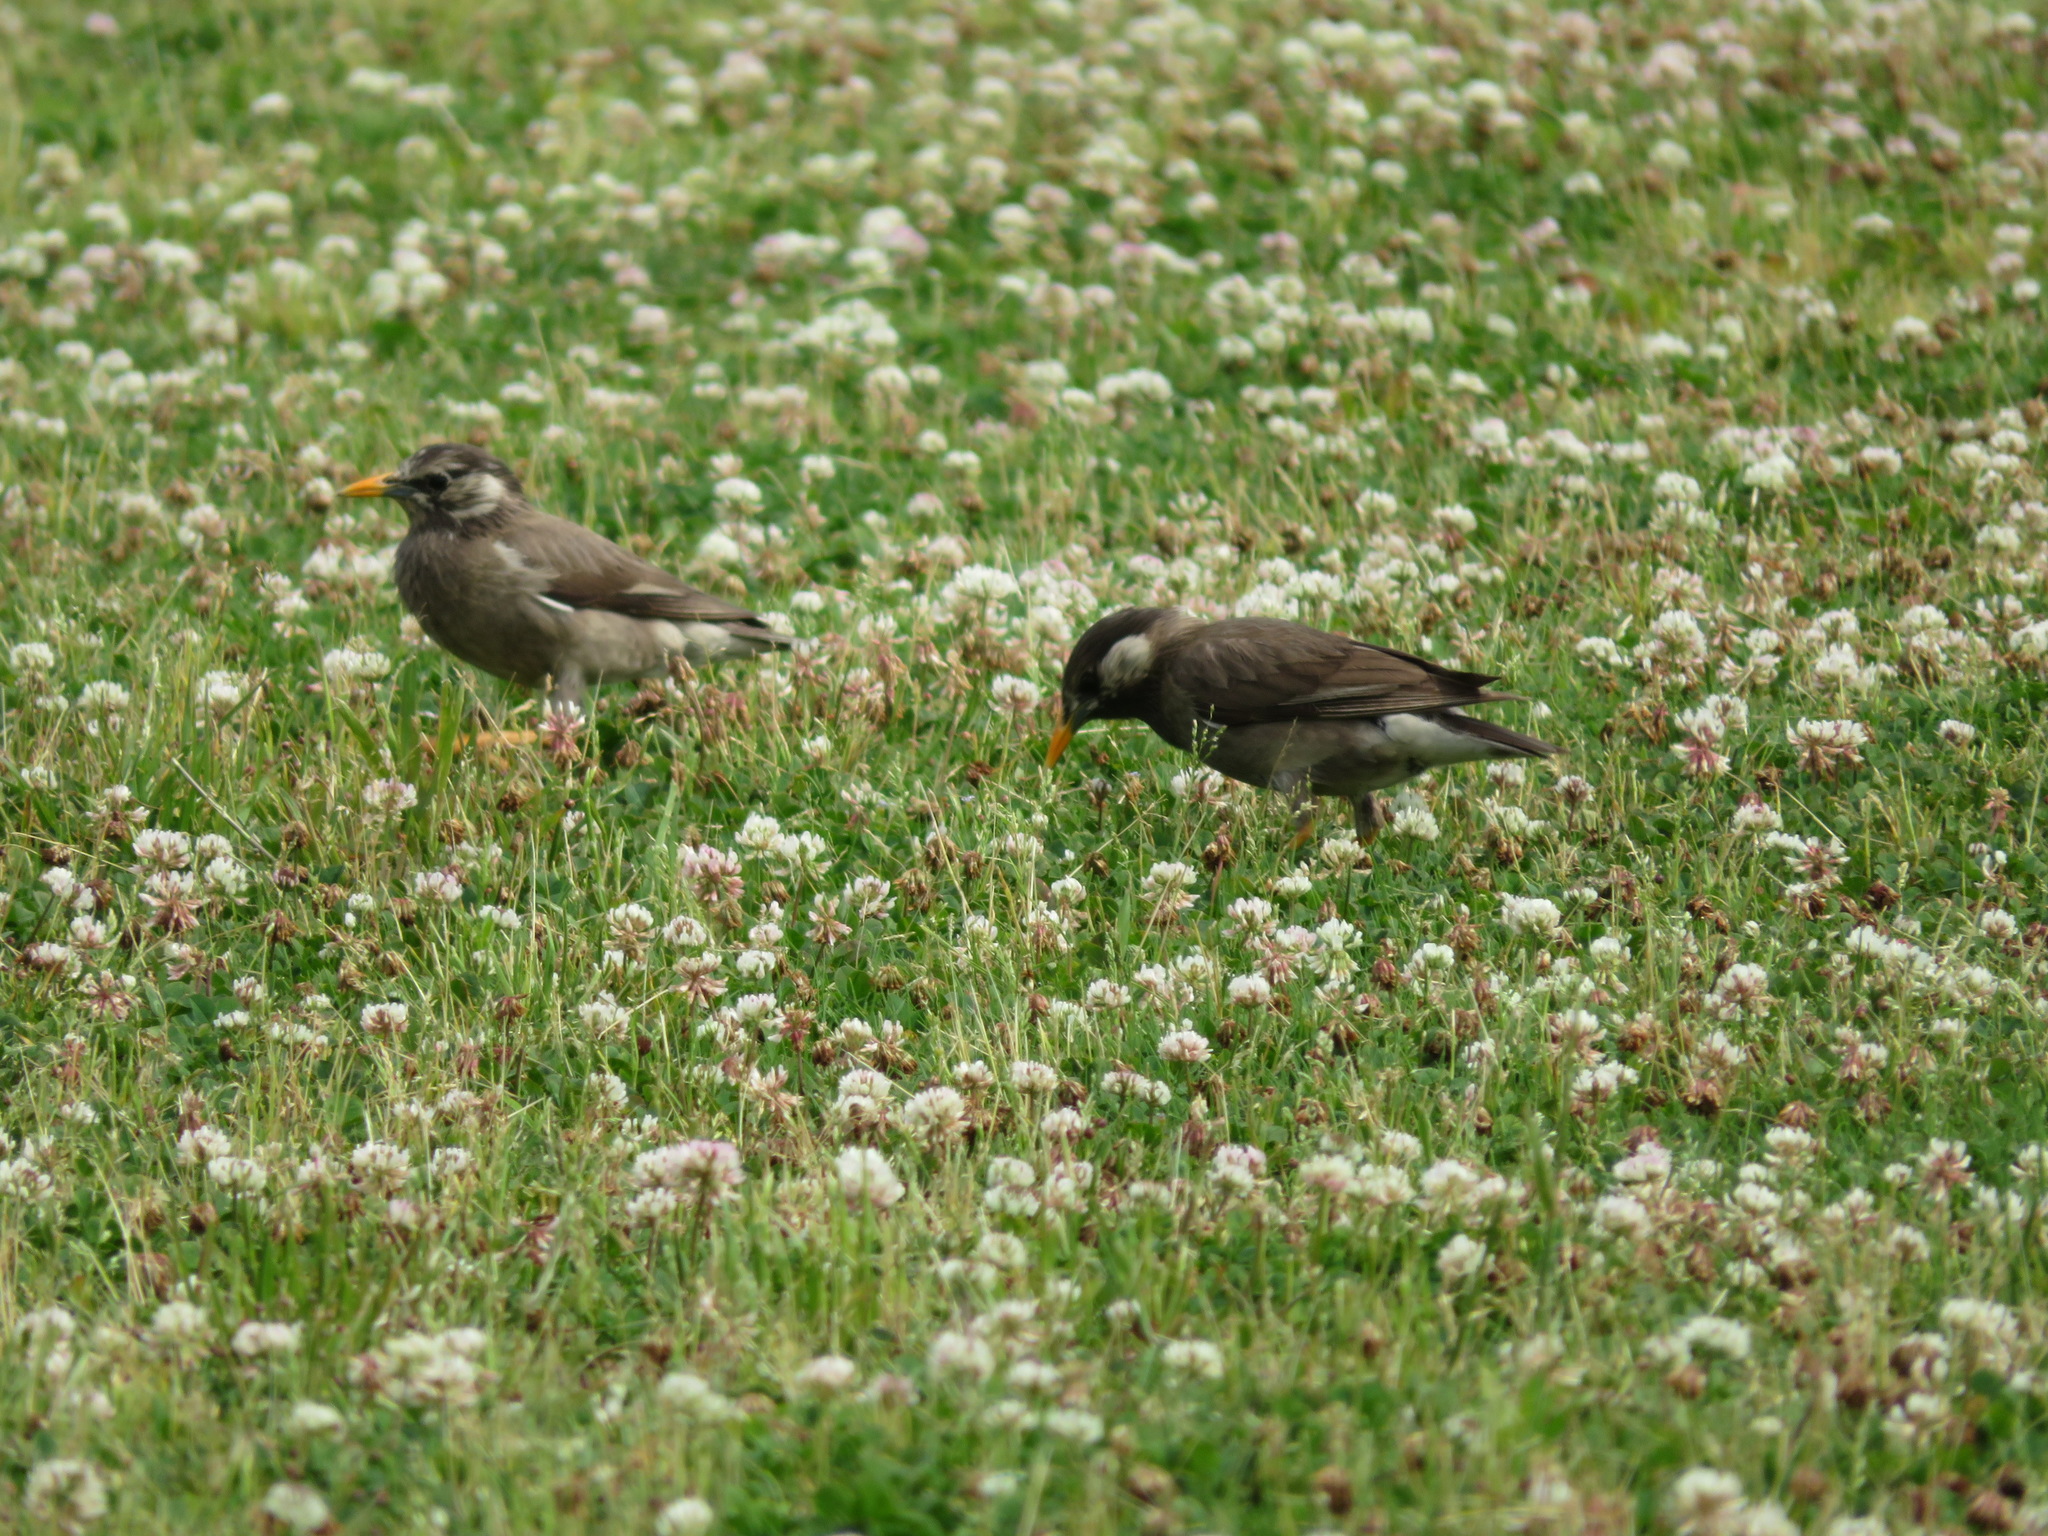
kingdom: Animalia
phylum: Chordata
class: Aves
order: Passeriformes
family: Sturnidae
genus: Spodiopsar
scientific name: Spodiopsar cineraceus
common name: White-cheeked starling
